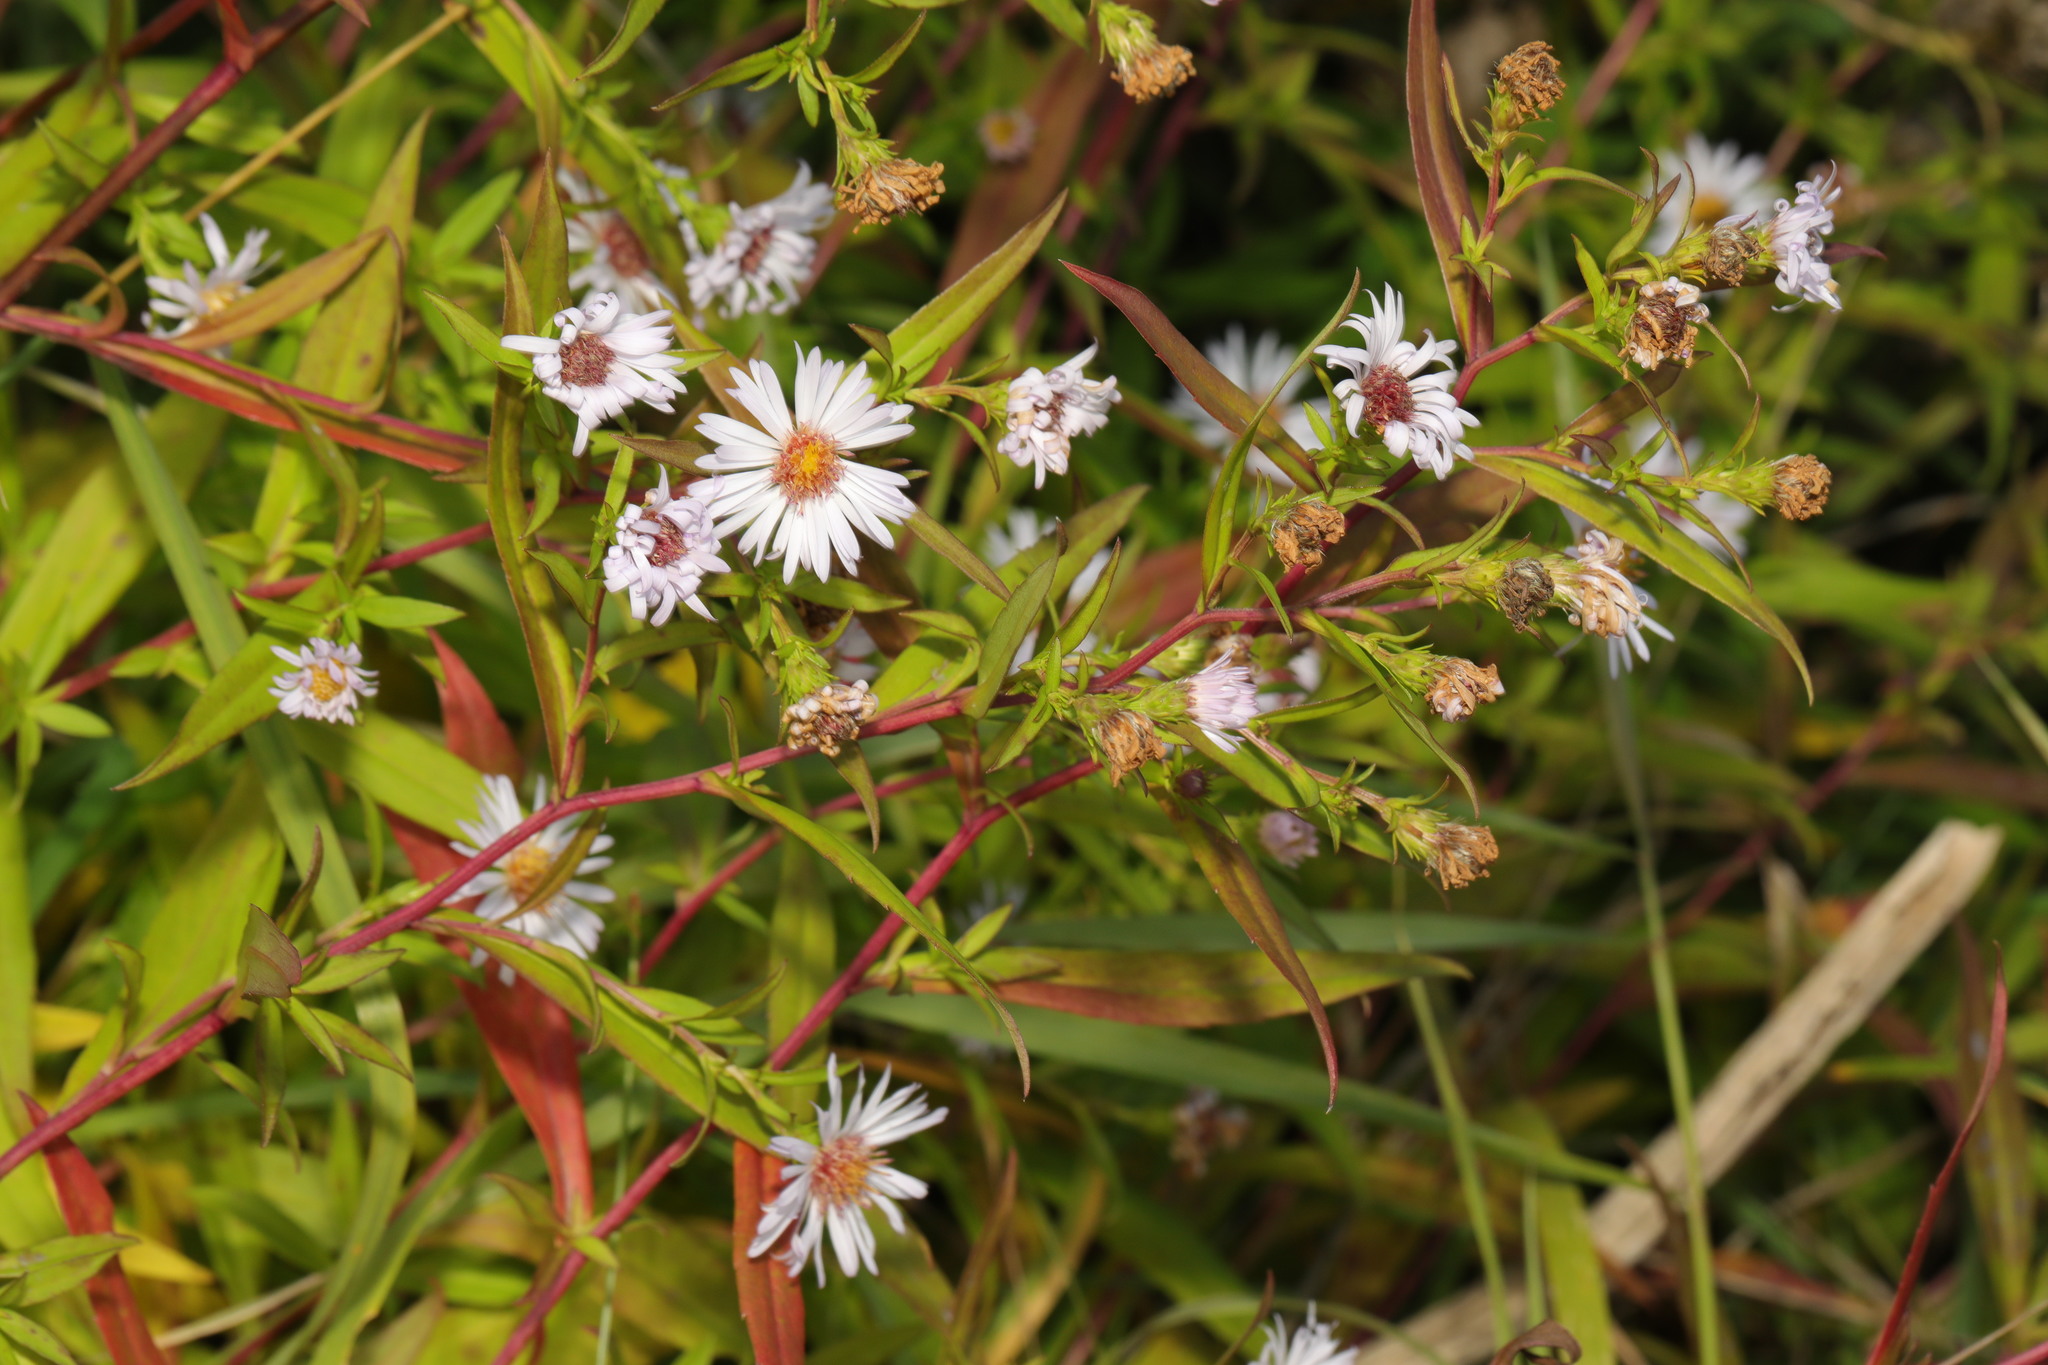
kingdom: Plantae
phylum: Tracheophyta
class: Magnoliopsida
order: Asterales
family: Asteraceae
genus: Symphyotrichum
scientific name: Symphyotrichum
